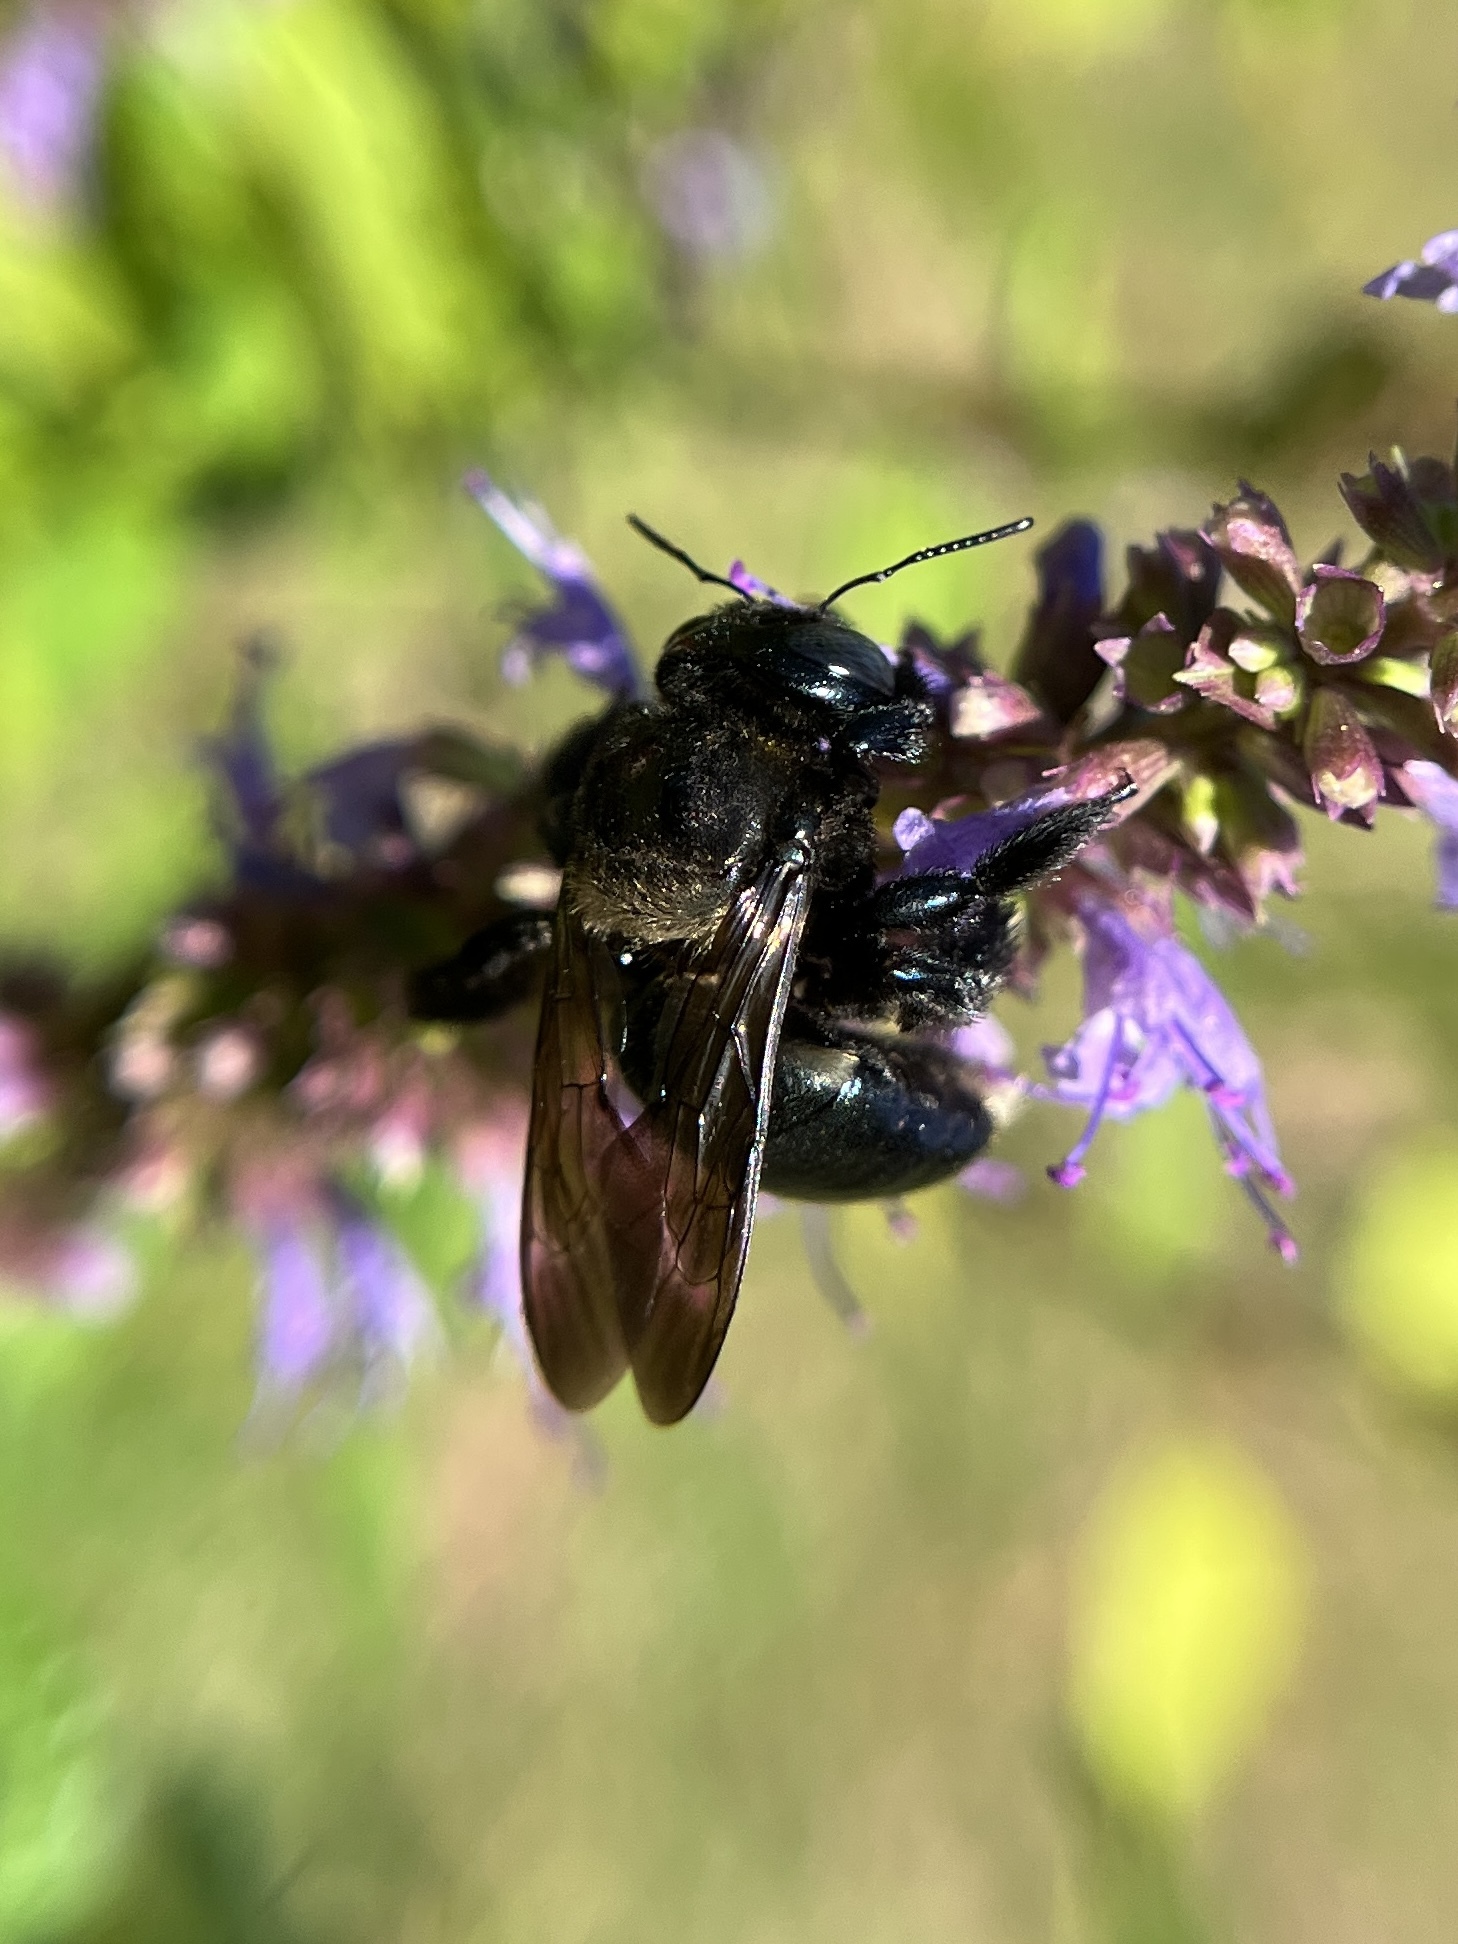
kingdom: Animalia
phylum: Arthropoda
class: Insecta
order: Hymenoptera
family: Apidae
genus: Xylocopa
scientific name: Xylocopa micans
